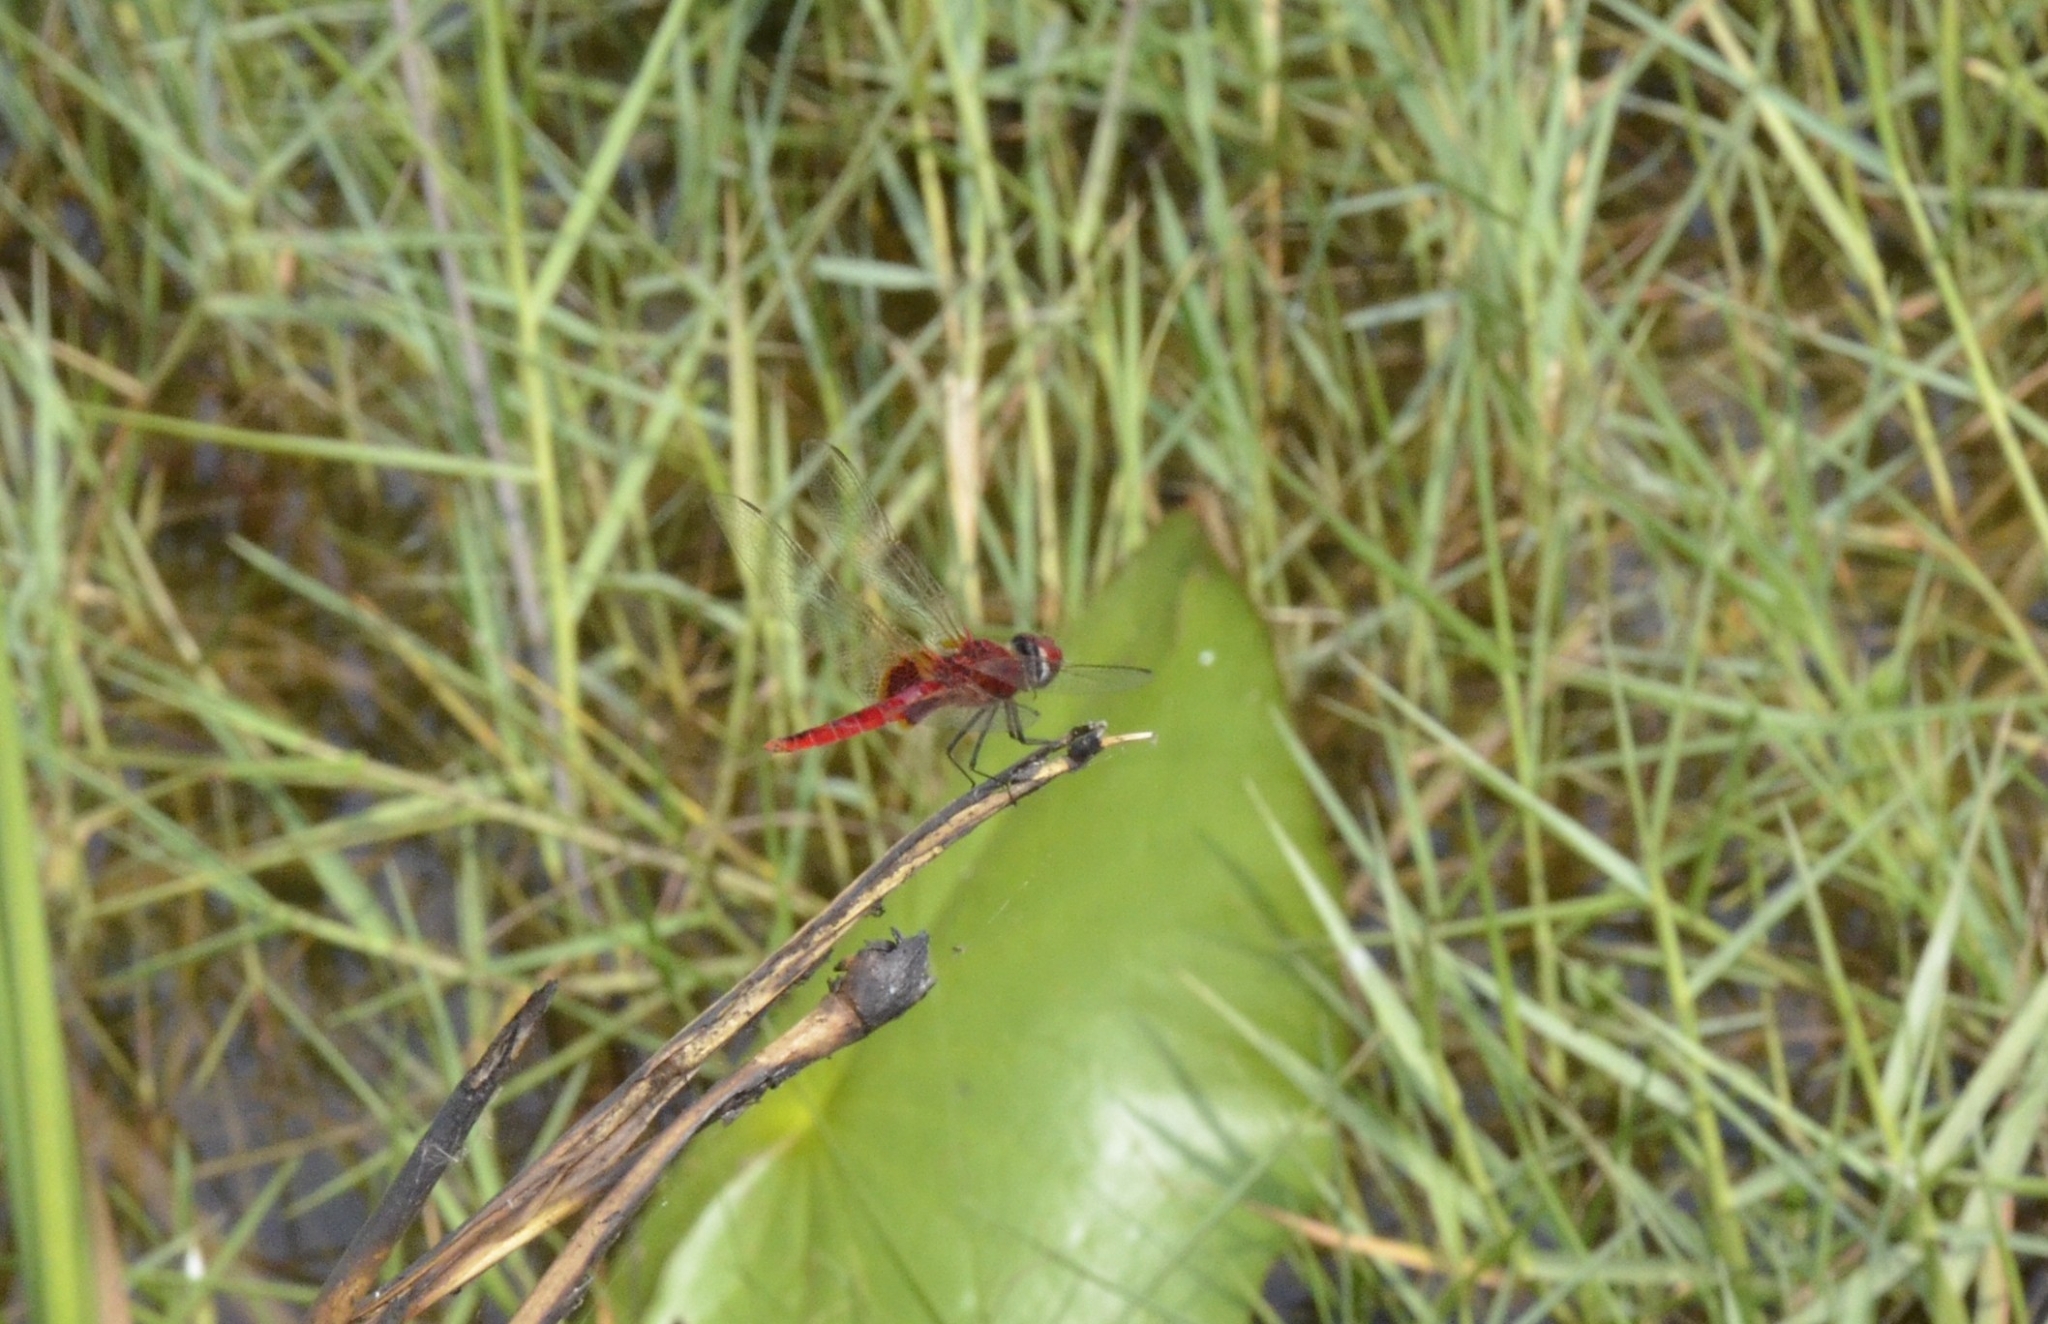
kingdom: Animalia
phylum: Arthropoda
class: Insecta
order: Odonata
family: Libellulidae
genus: Urothemis
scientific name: Urothemis signata
